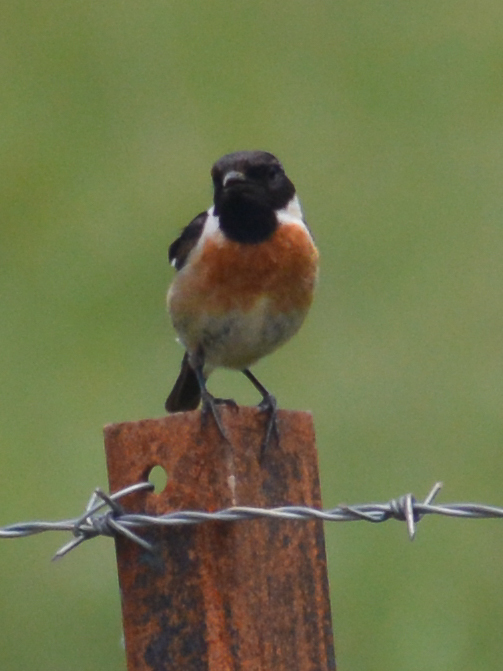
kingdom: Animalia
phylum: Chordata
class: Aves
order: Passeriformes
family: Muscicapidae
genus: Saxicola
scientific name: Saxicola rubicola
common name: European stonechat
